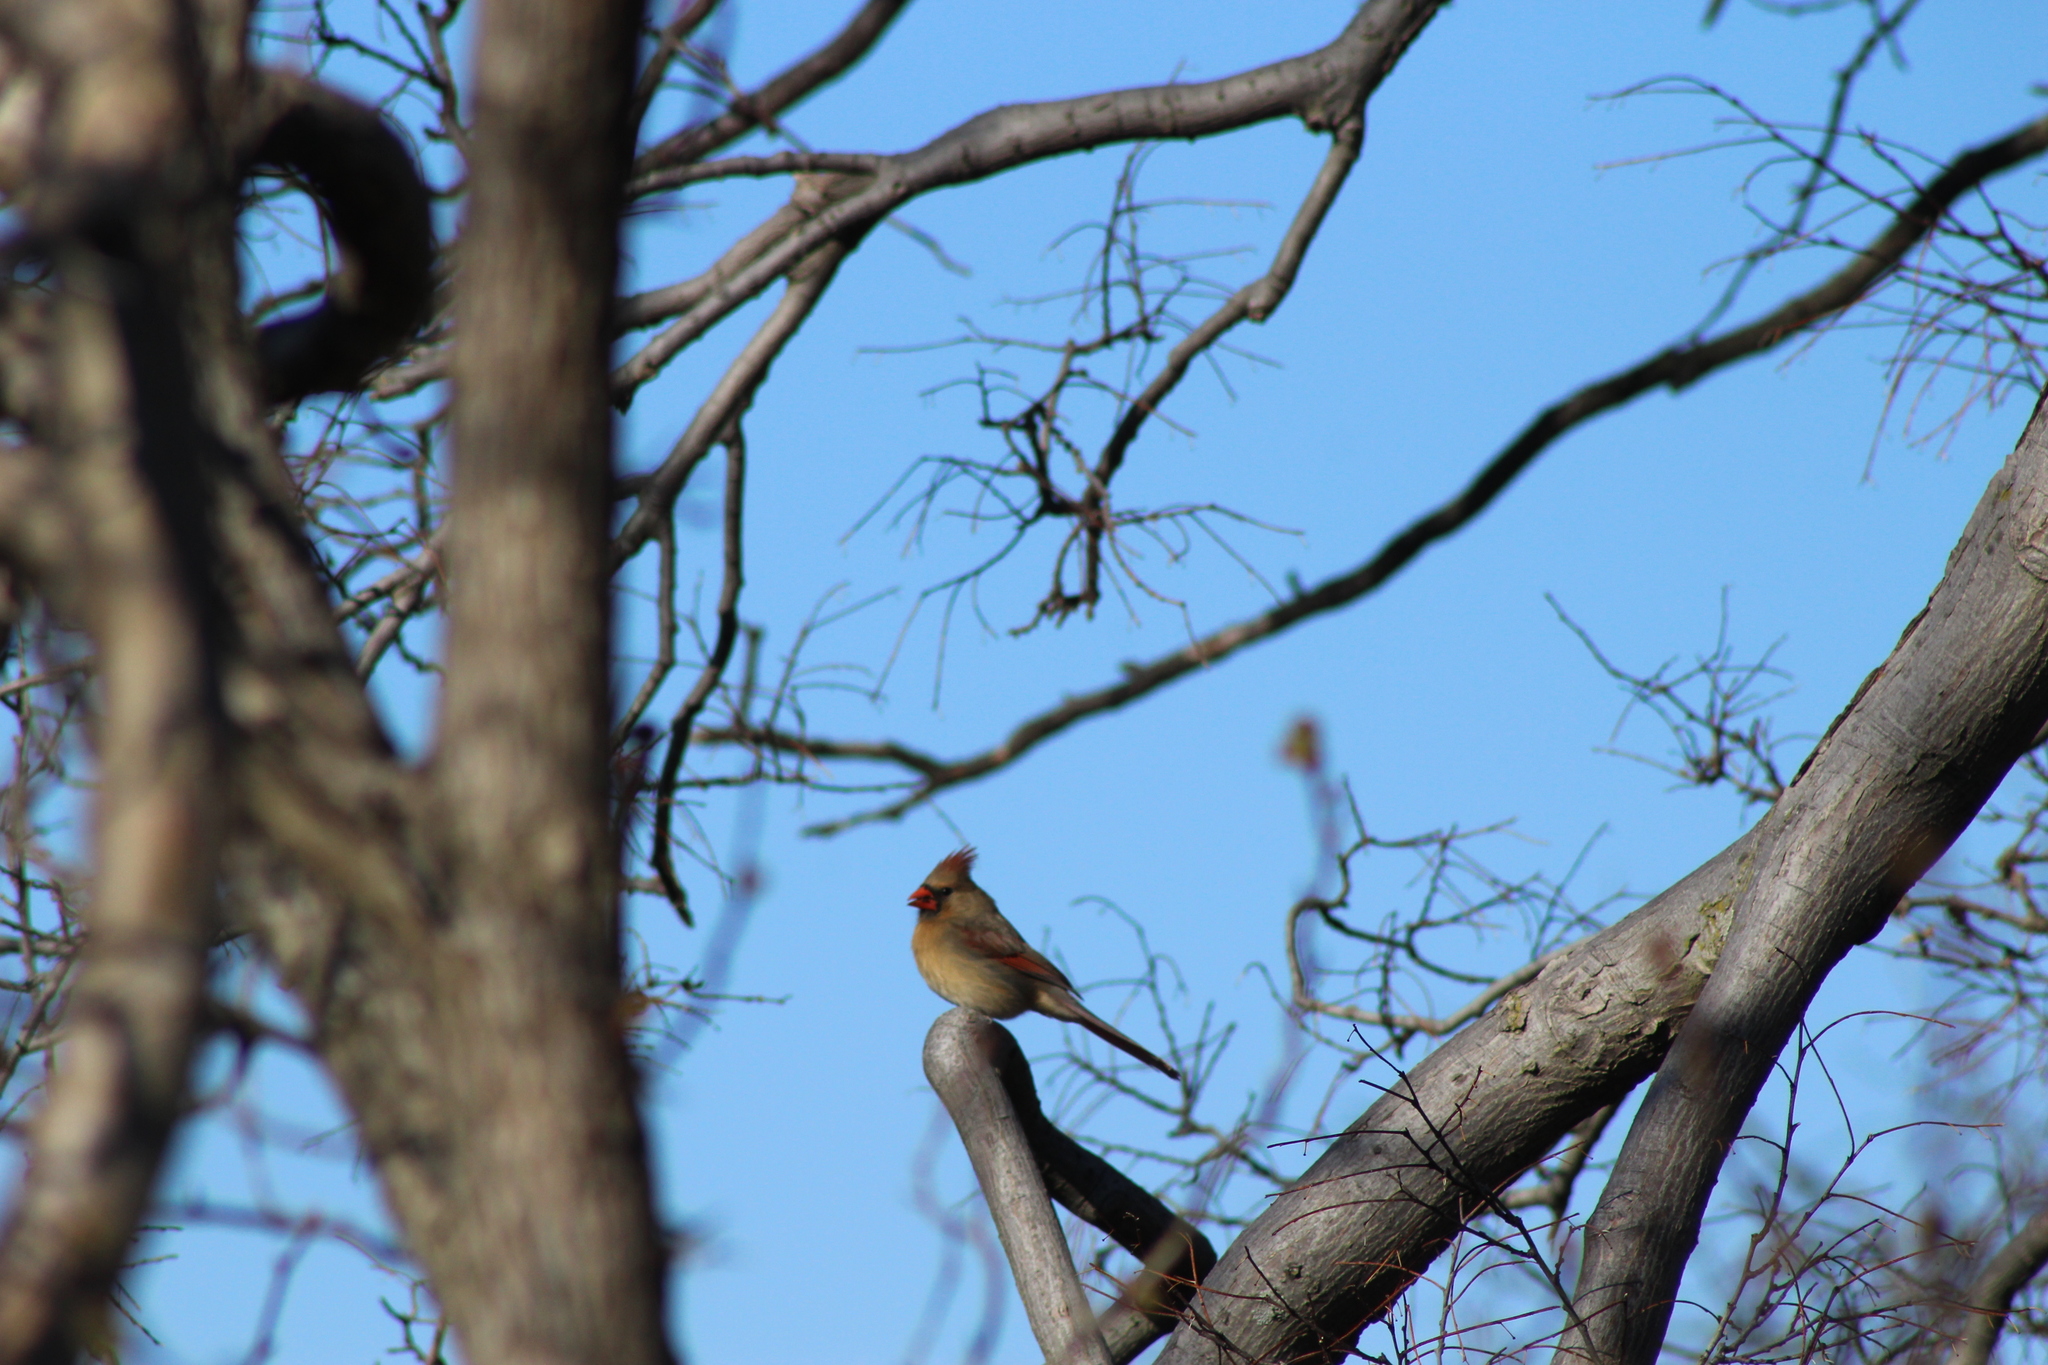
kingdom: Animalia
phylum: Chordata
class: Aves
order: Passeriformes
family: Cardinalidae
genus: Cardinalis
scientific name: Cardinalis cardinalis
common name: Northern cardinal
